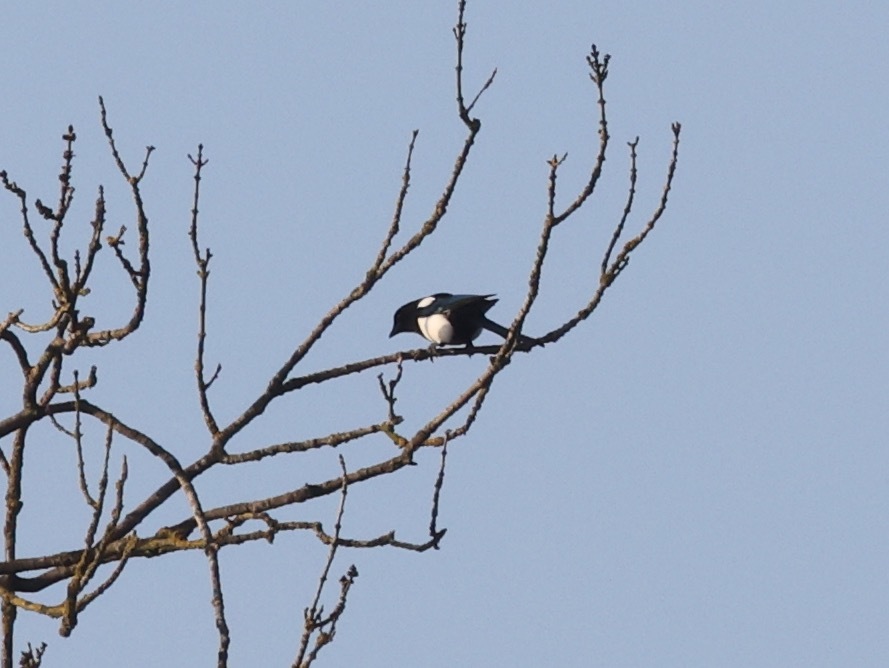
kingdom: Animalia
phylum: Chordata
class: Aves
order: Passeriformes
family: Corvidae
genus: Pica
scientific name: Pica pica
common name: Eurasian magpie
